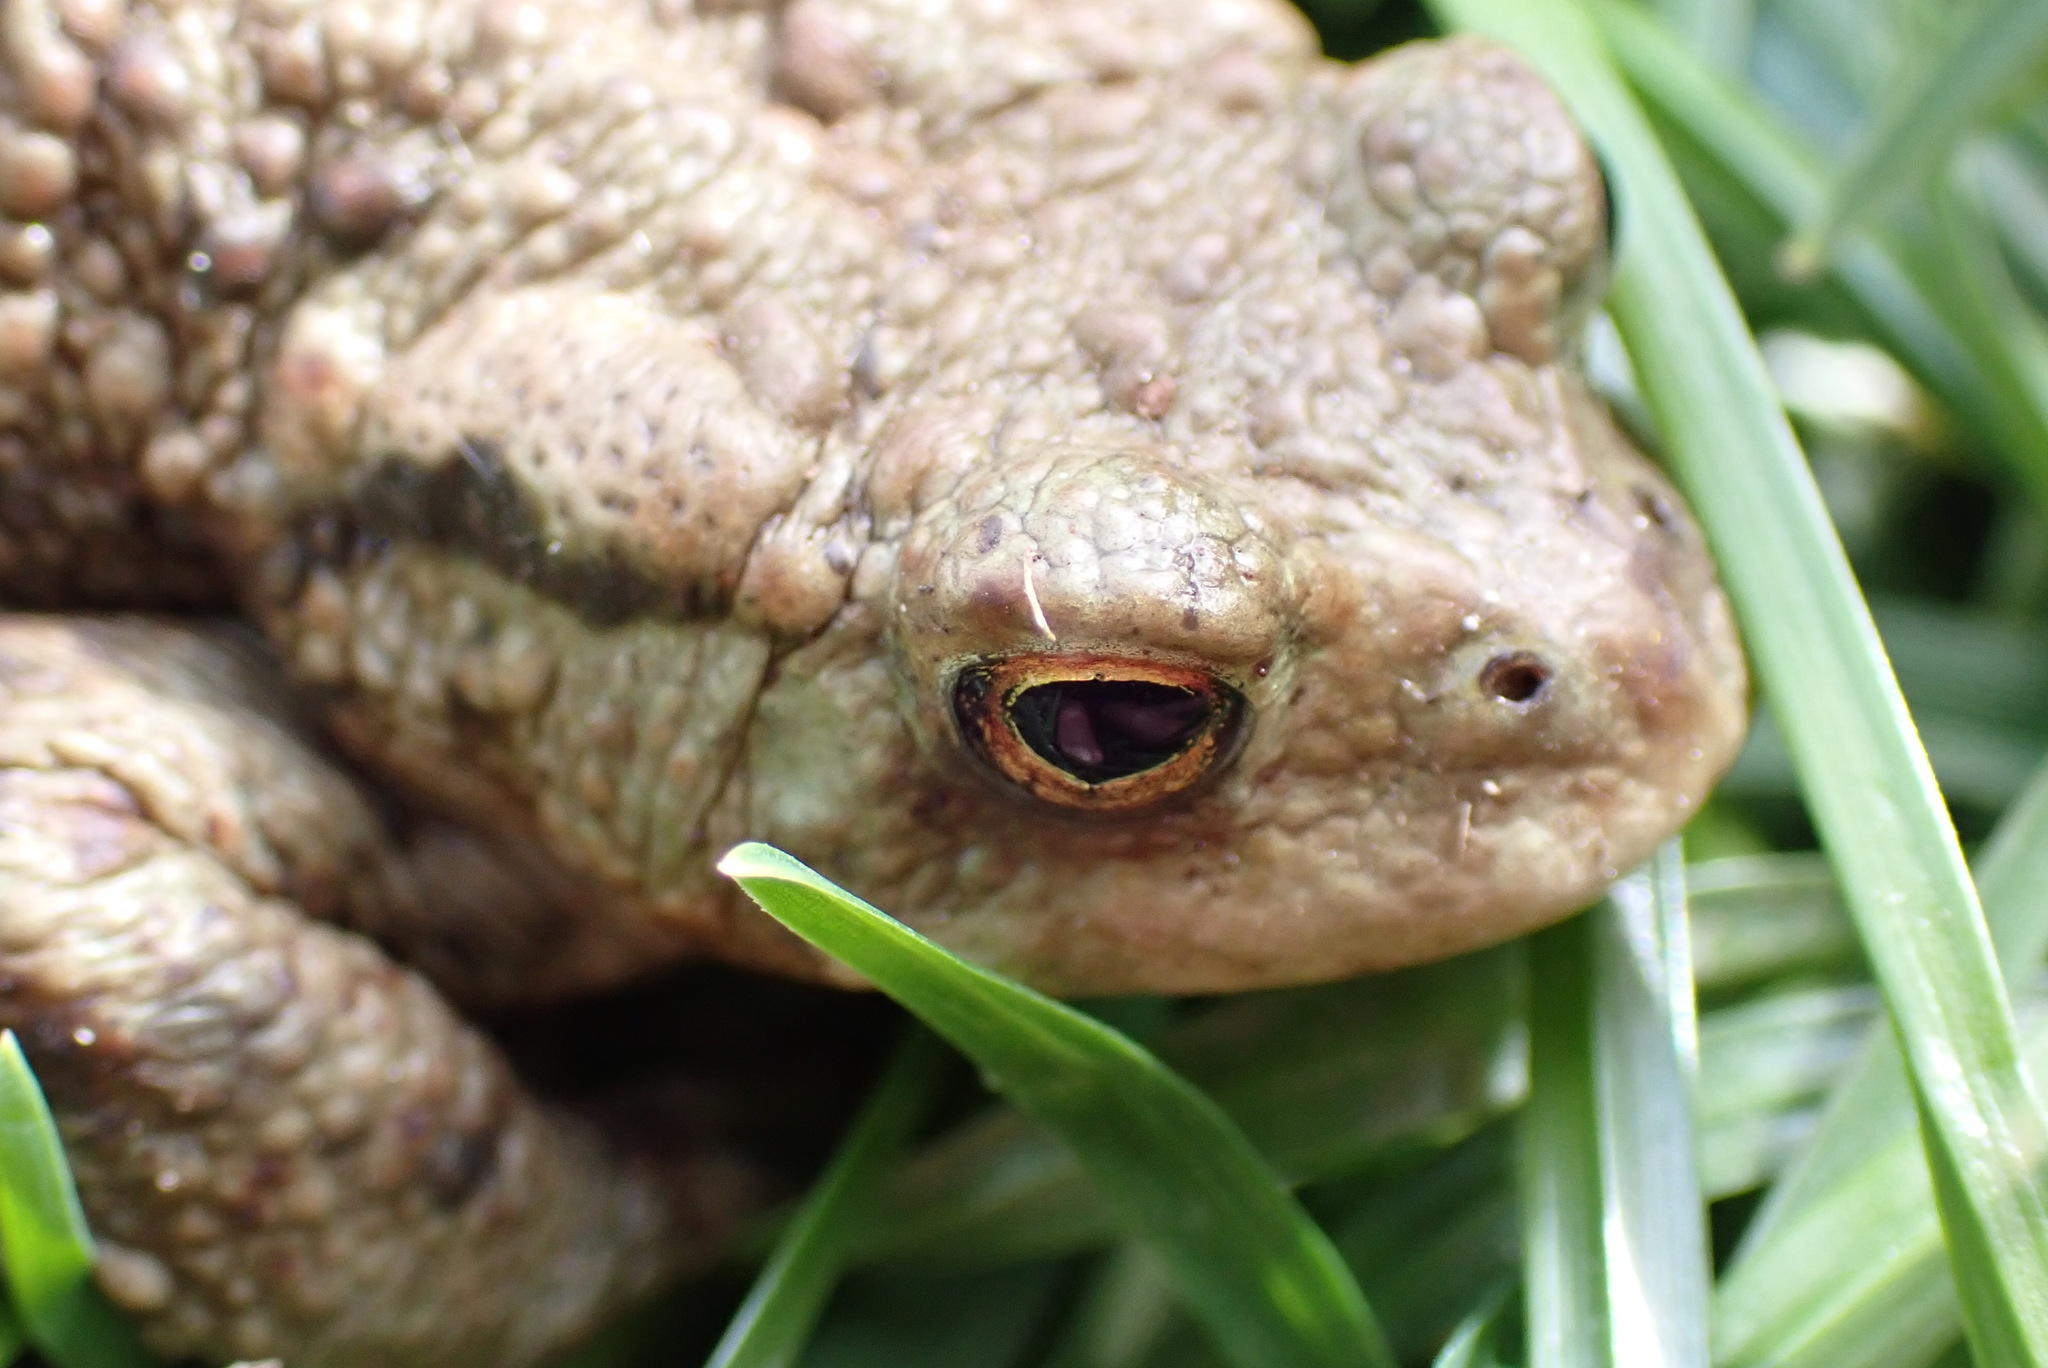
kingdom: Animalia
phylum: Chordata
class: Amphibia
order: Anura
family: Bufonidae
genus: Bufo
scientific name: Bufo bufo
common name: Common toad
